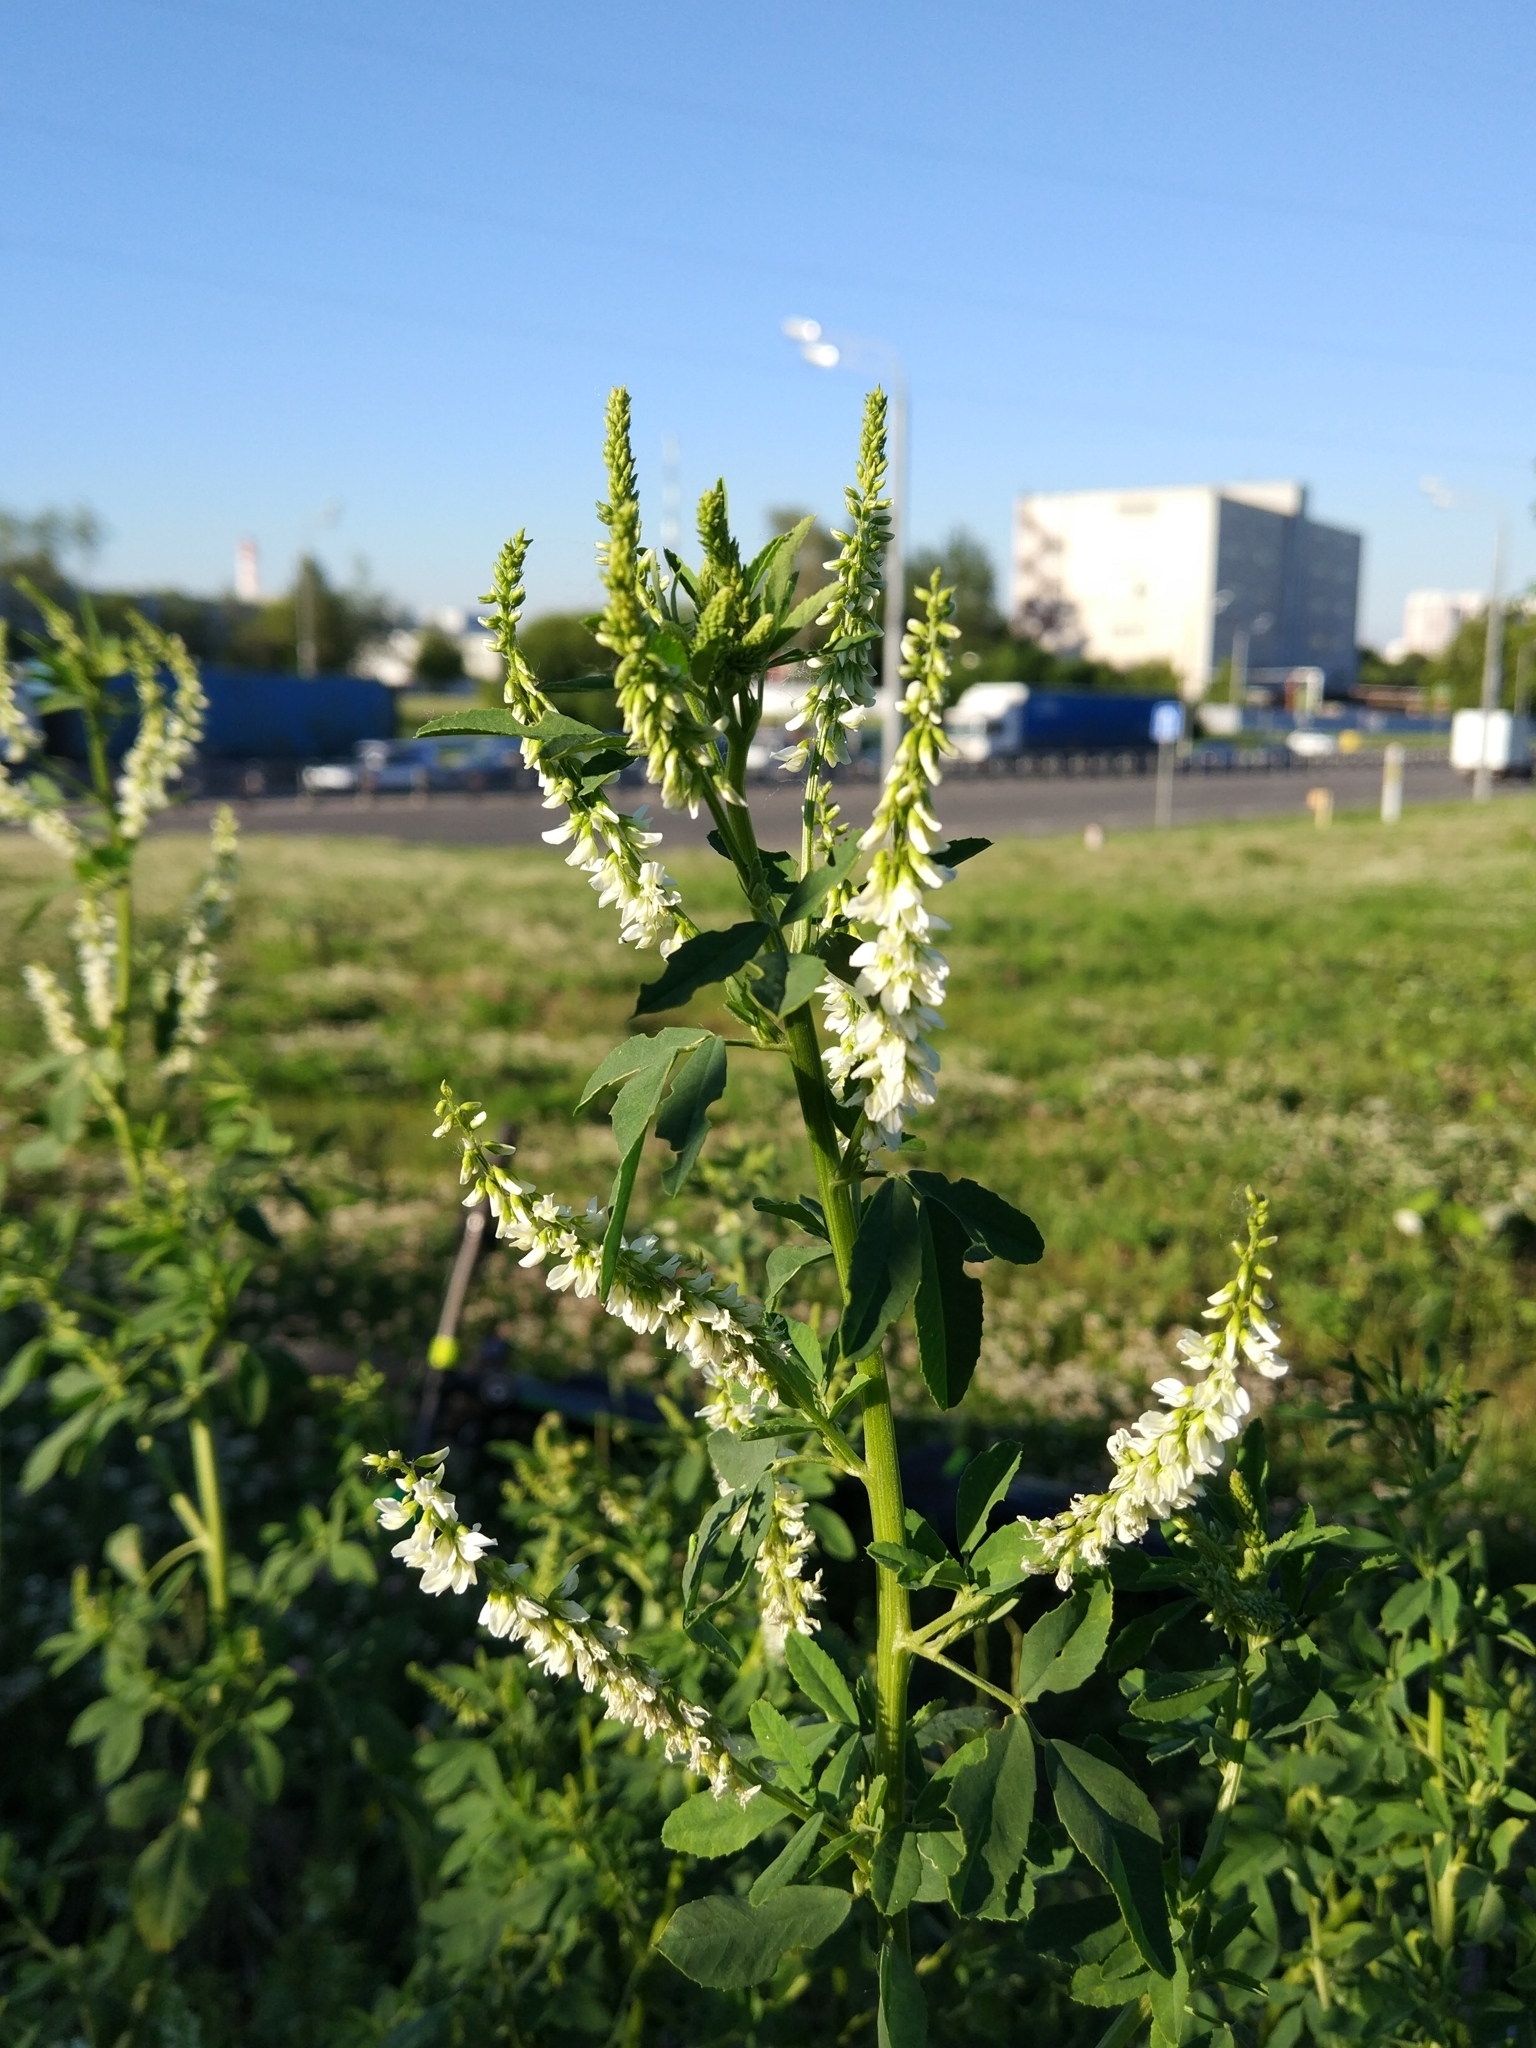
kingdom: Plantae
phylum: Tracheophyta
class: Magnoliopsida
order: Fabales
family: Fabaceae
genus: Melilotus
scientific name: Melilotus albus
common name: White melilot
